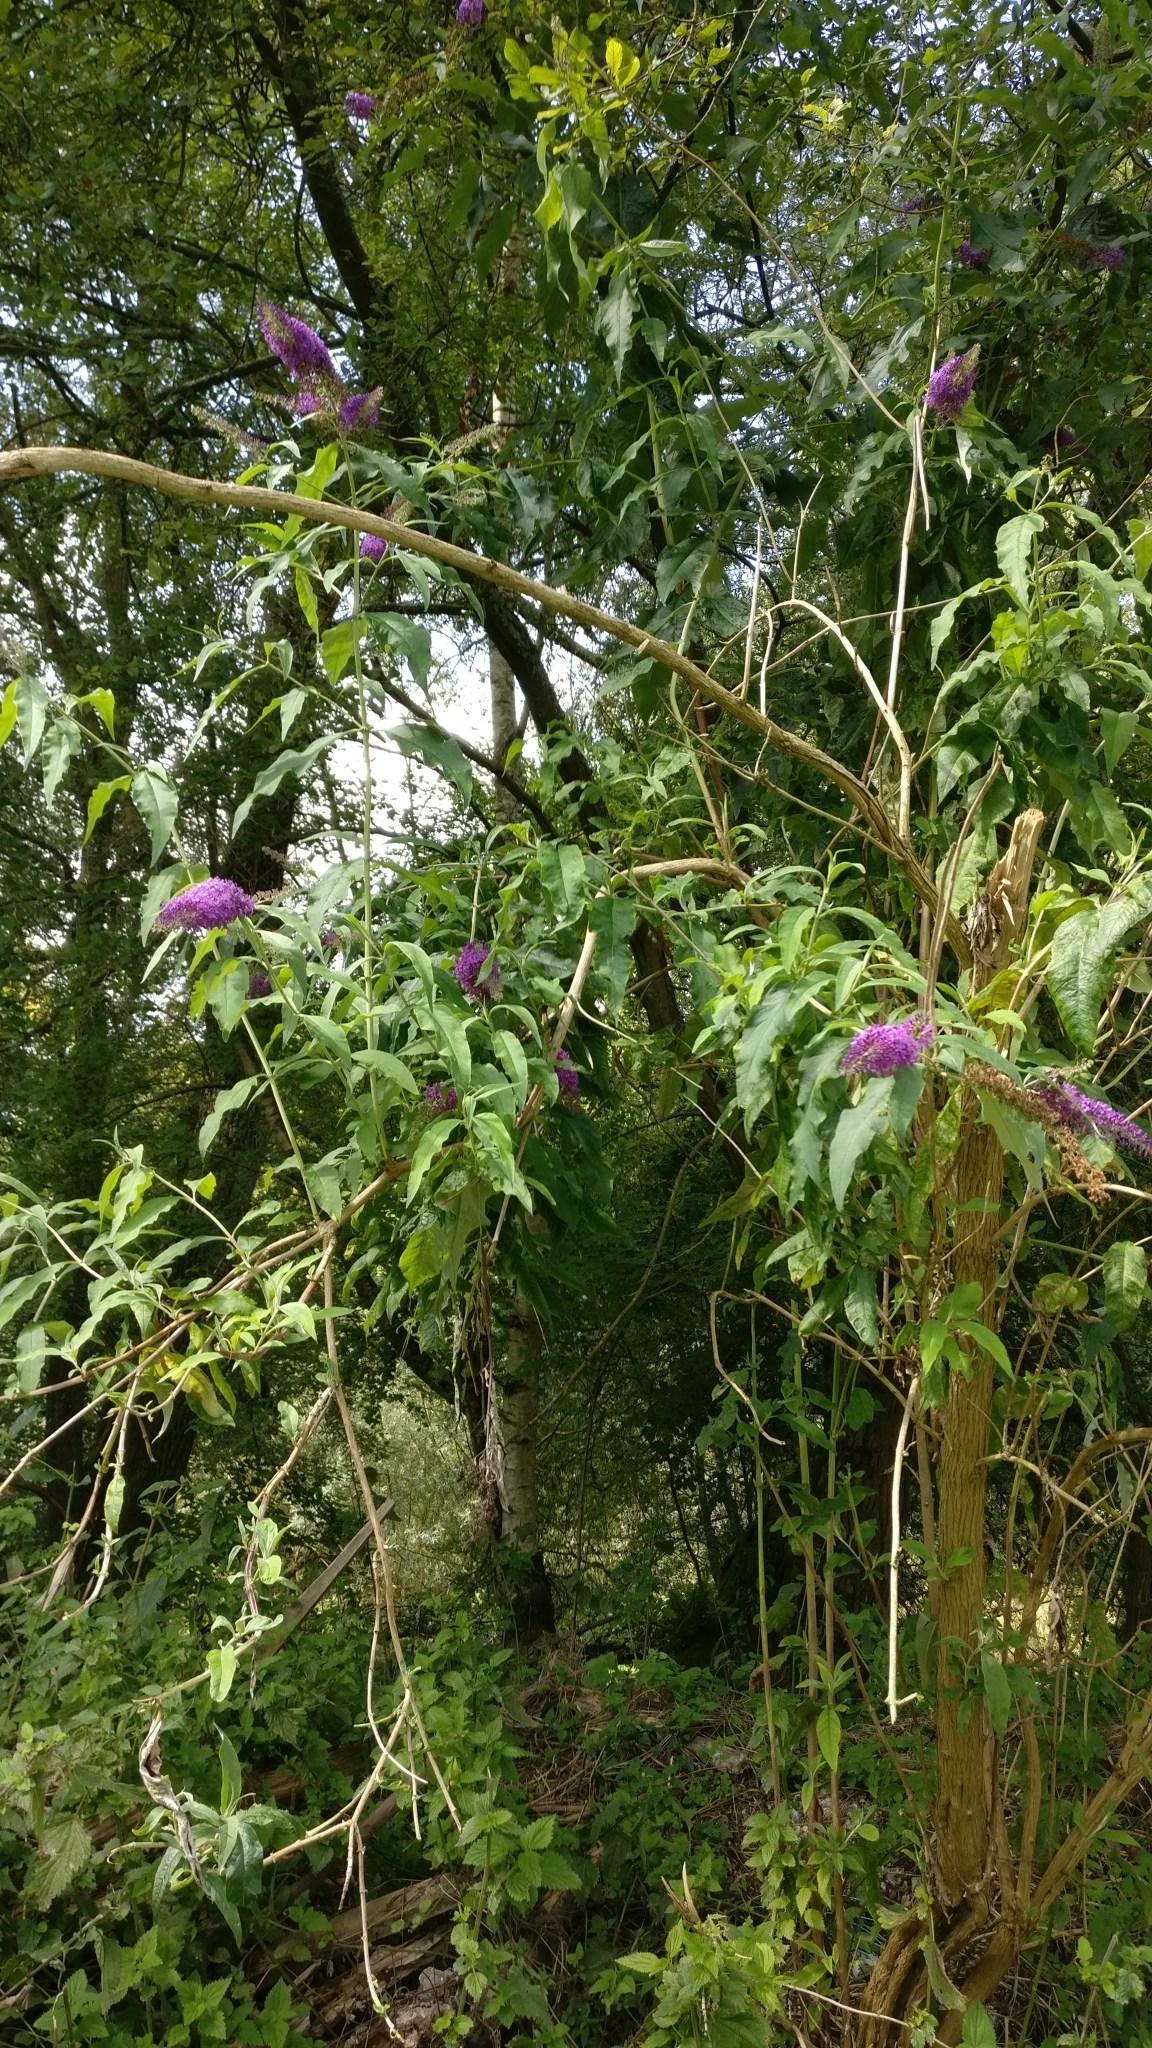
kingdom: Plantae
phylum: Tracheophyta
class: Magnoliopsida
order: Lamiales
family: Scrophulariaceae
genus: Buddleja
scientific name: Buddleja davidii
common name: Butterfly-bush
